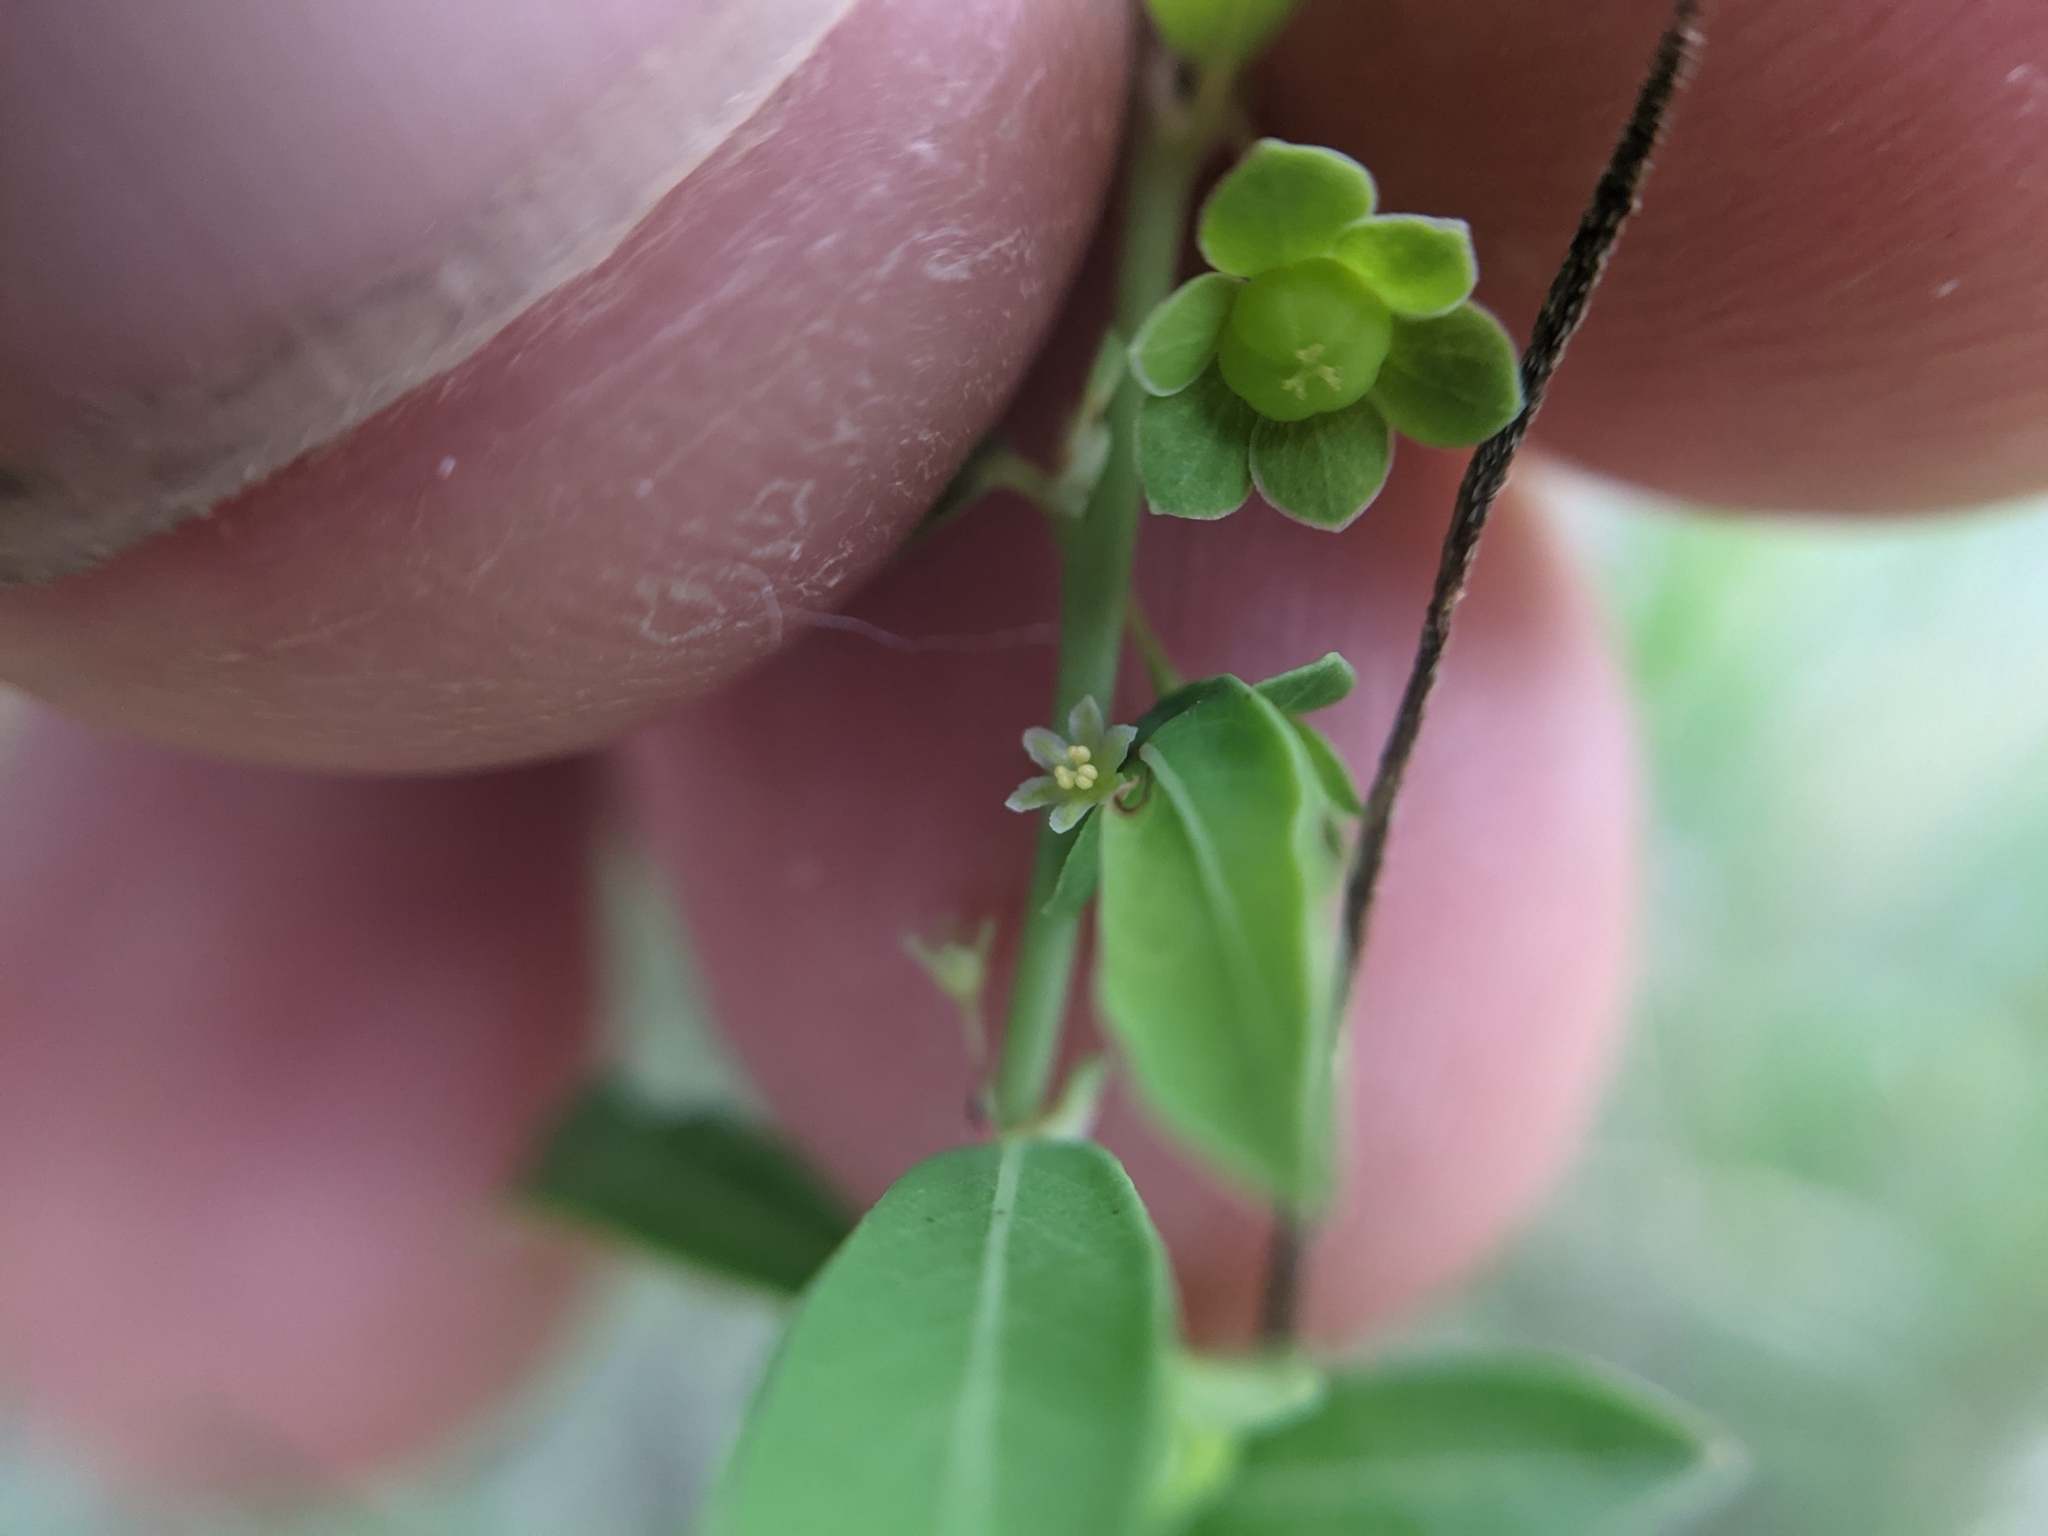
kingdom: Plantae
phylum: Tracheophyta
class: Magnoliopsida
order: Malpighiales
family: Phyllanthaceae
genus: Phyllanthus
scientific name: Phyllanthus polygonoides
